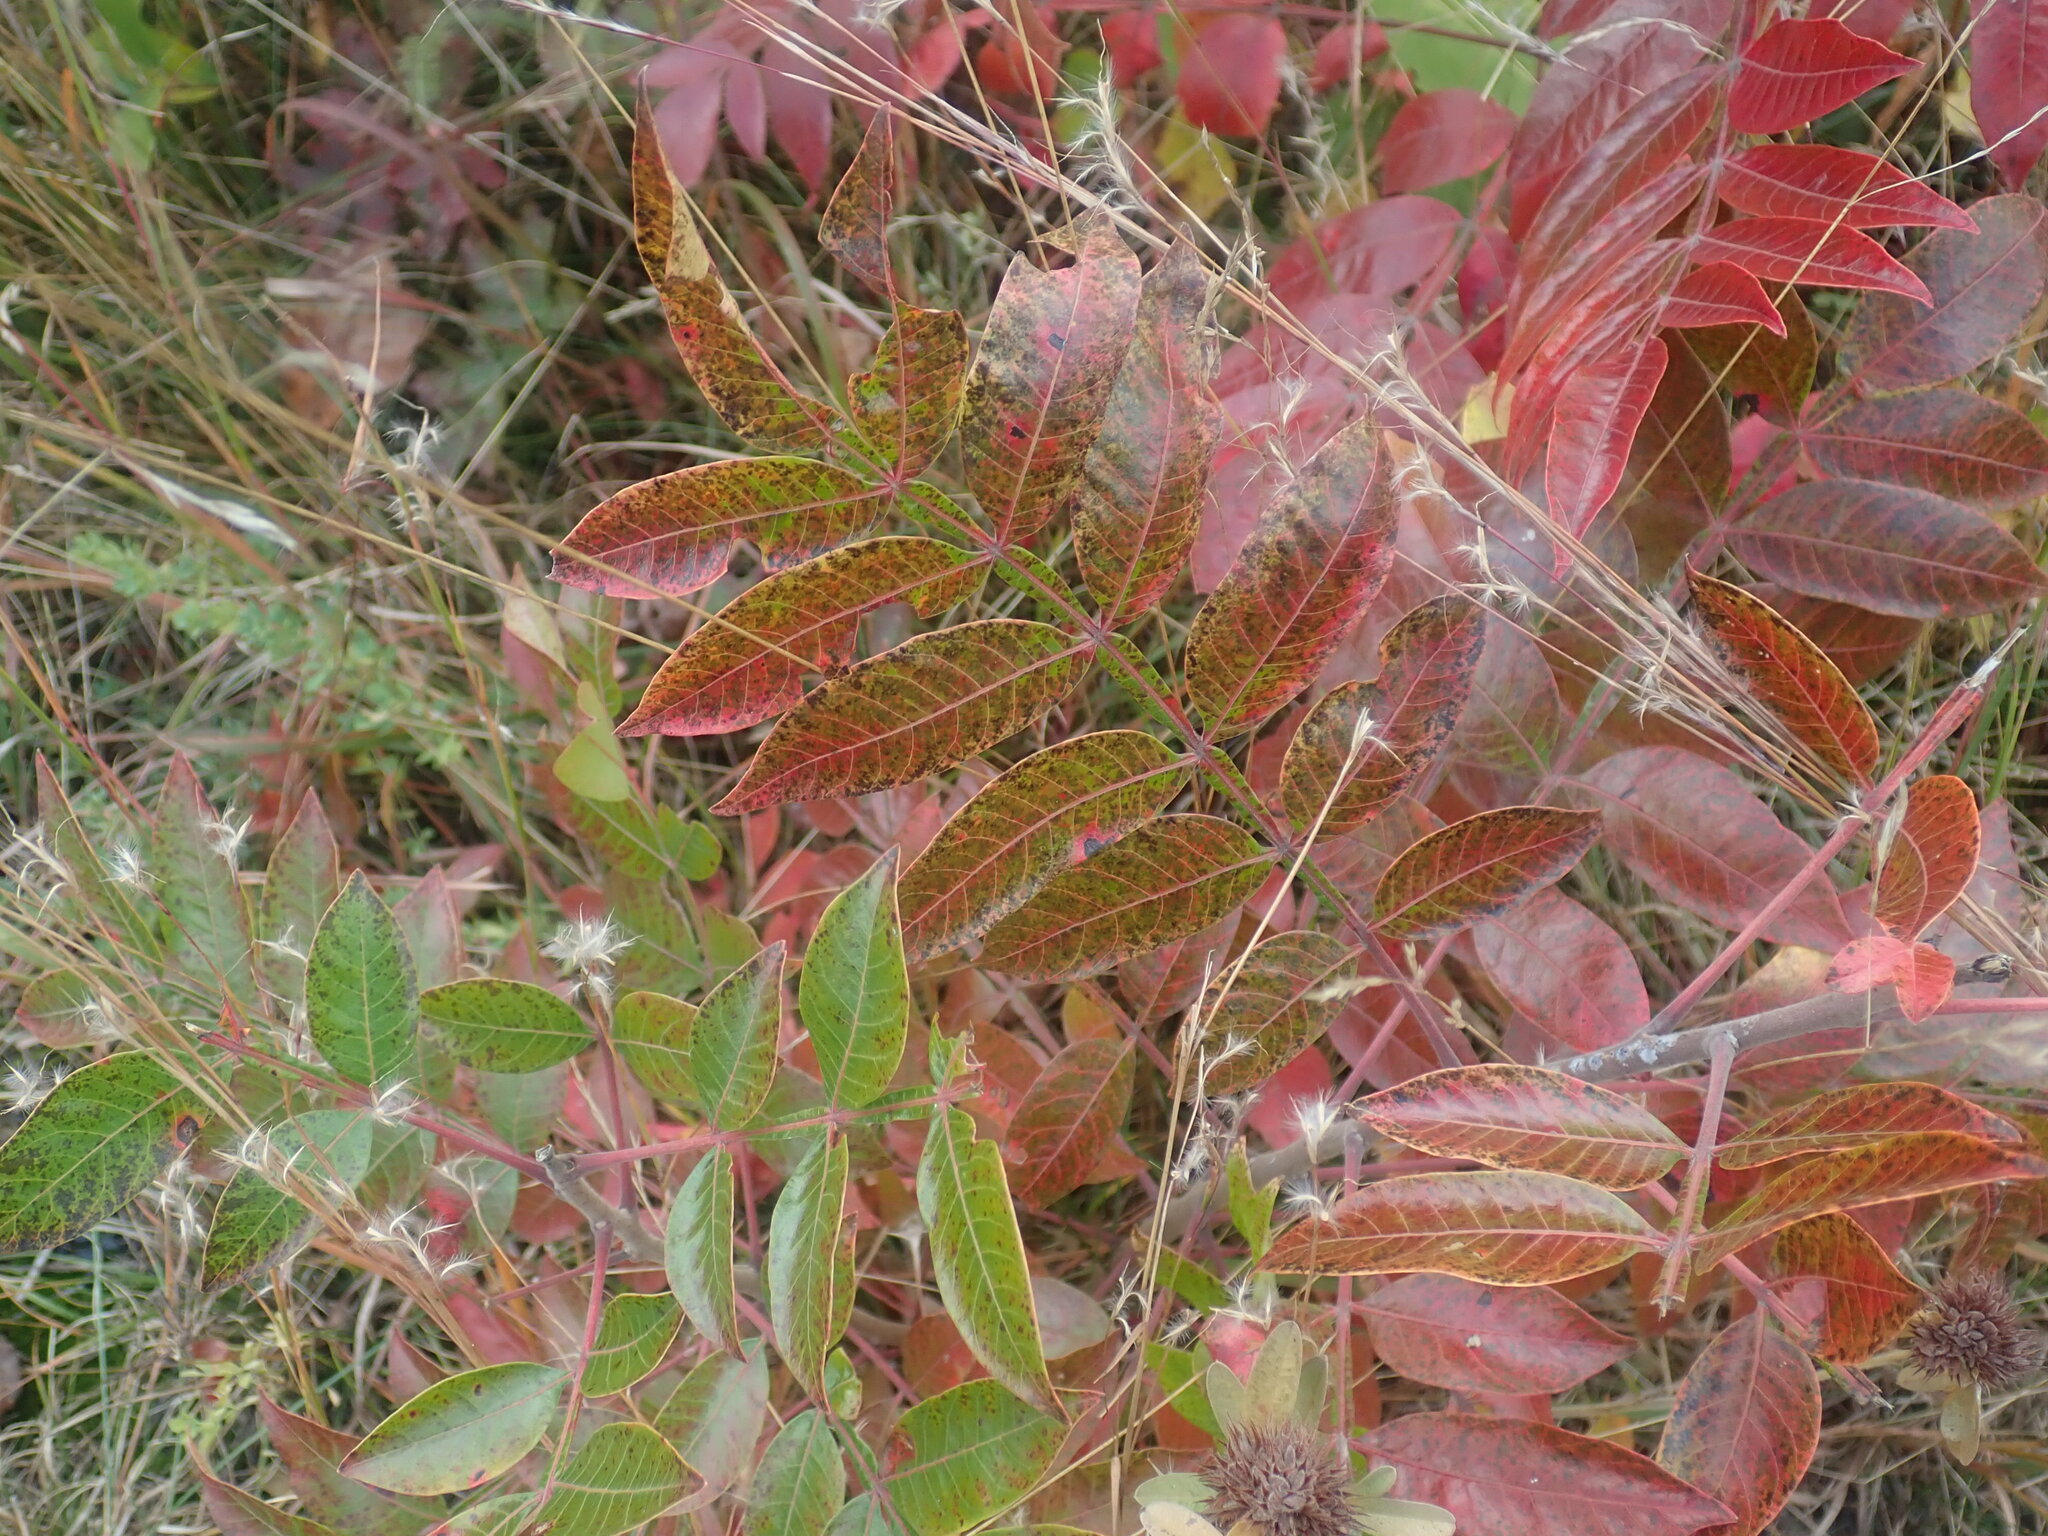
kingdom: Plantae
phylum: Tracheophyta
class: Magnoliopsida
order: Sapindales
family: Anacardiaceae
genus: Rhus
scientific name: Rhus copallina
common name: Shining sumac
